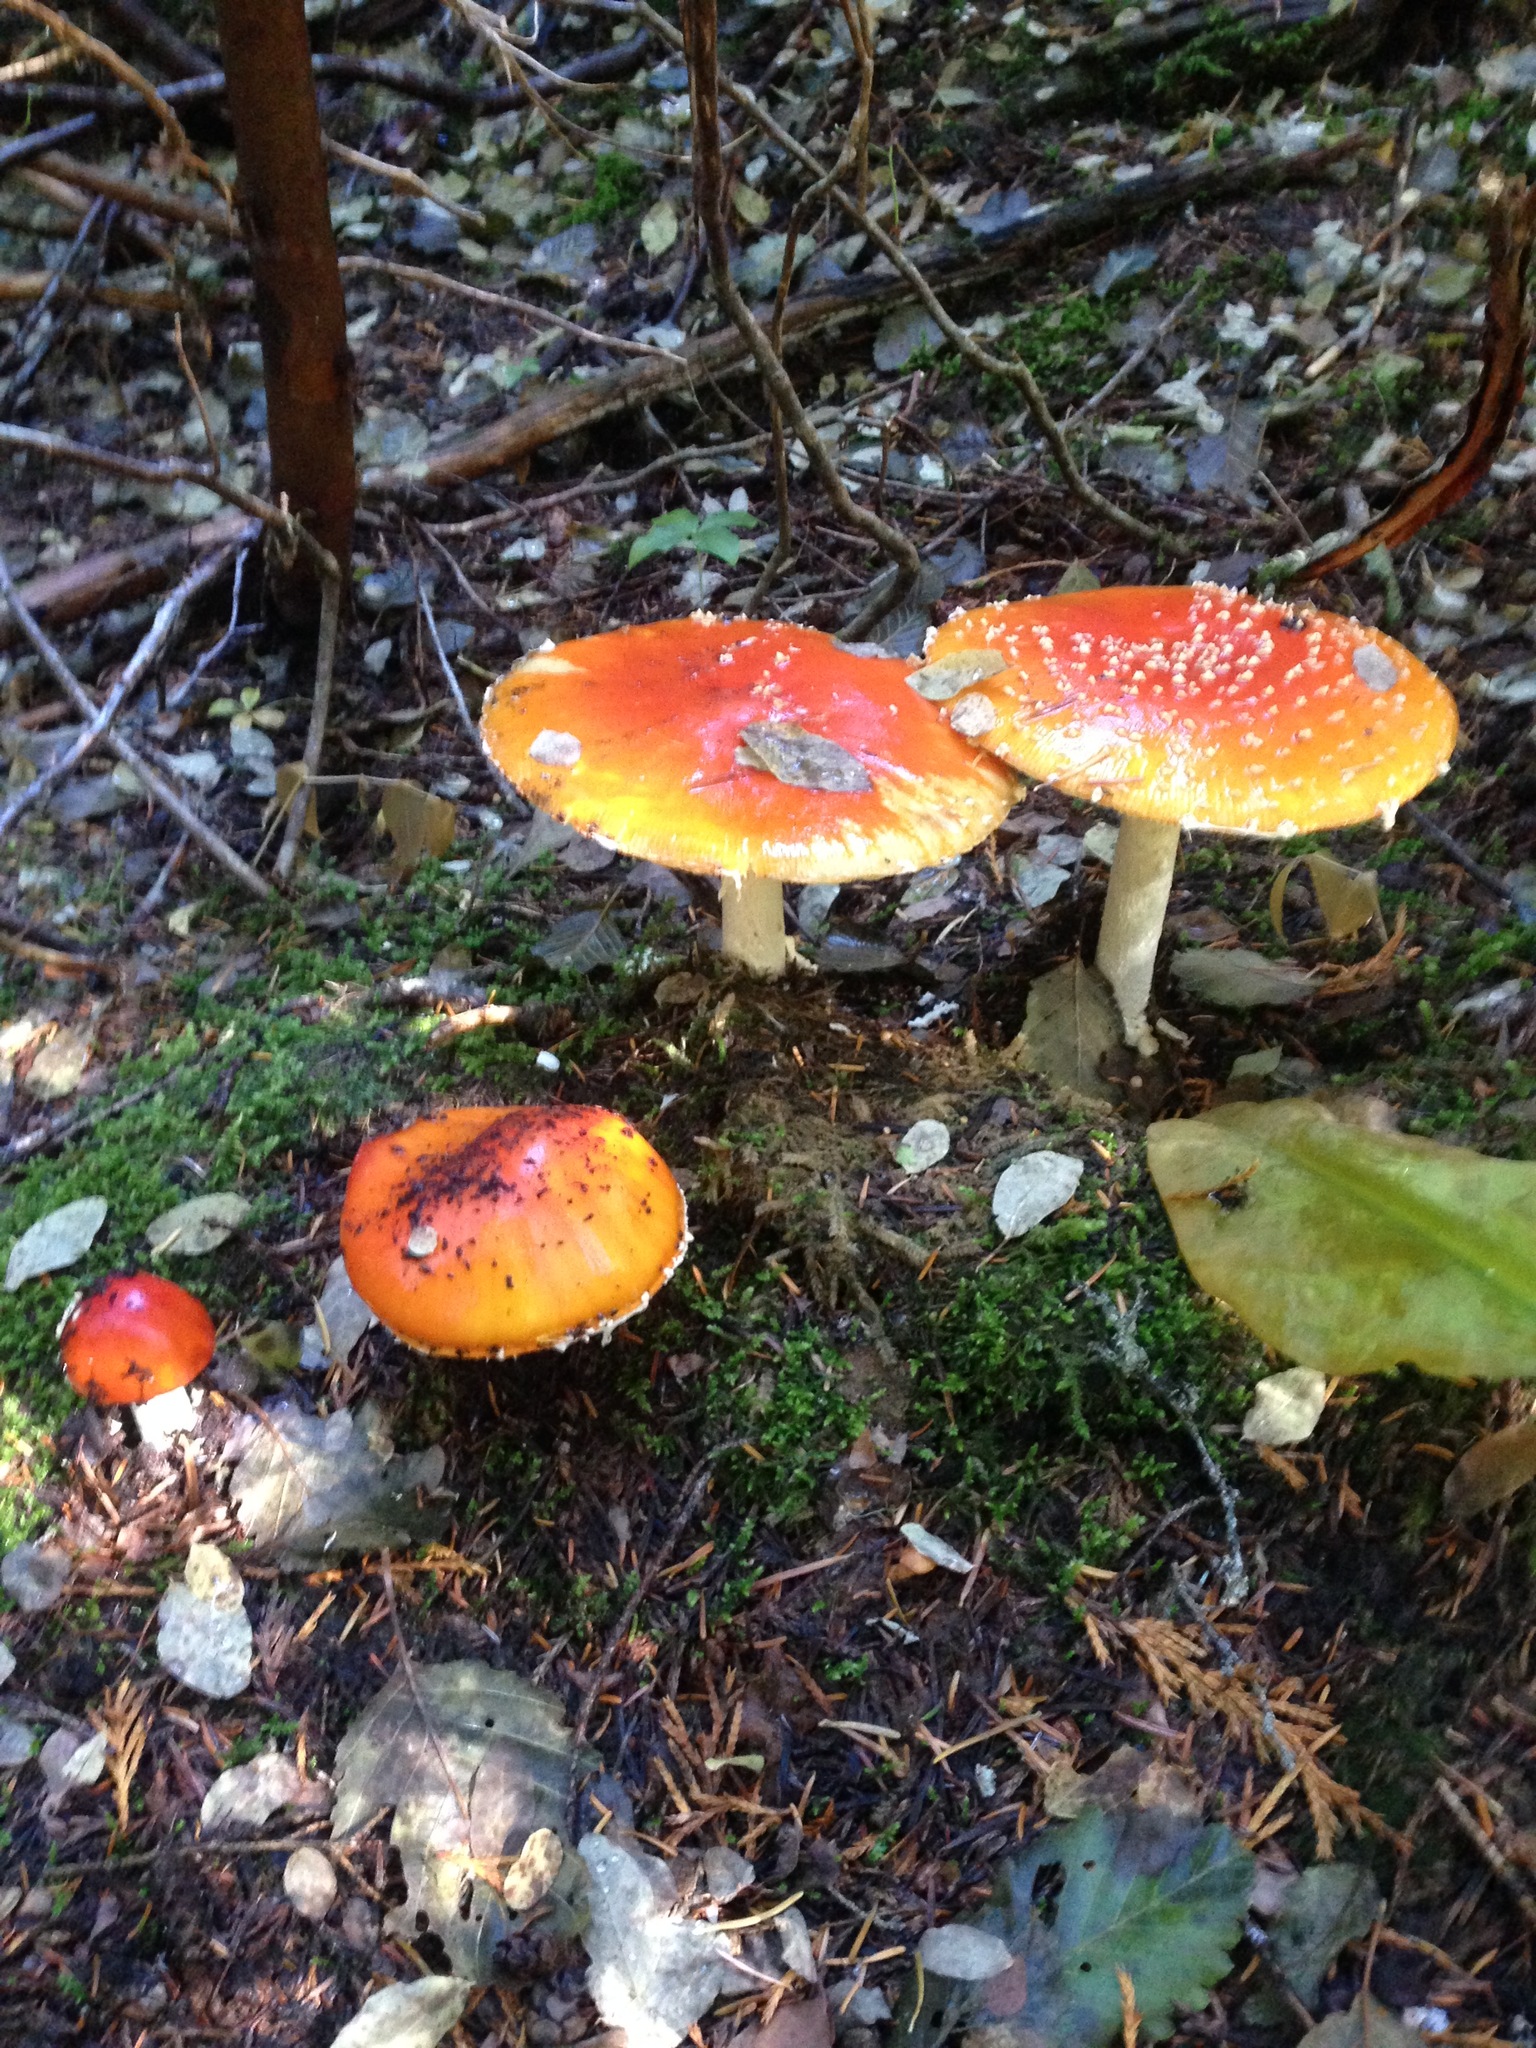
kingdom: Fungi
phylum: Basidiomycota
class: Agaricomycetes
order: Agaricales
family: Amanitaceae
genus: Amanita
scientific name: Amanita muscaria
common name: Fly agaric
